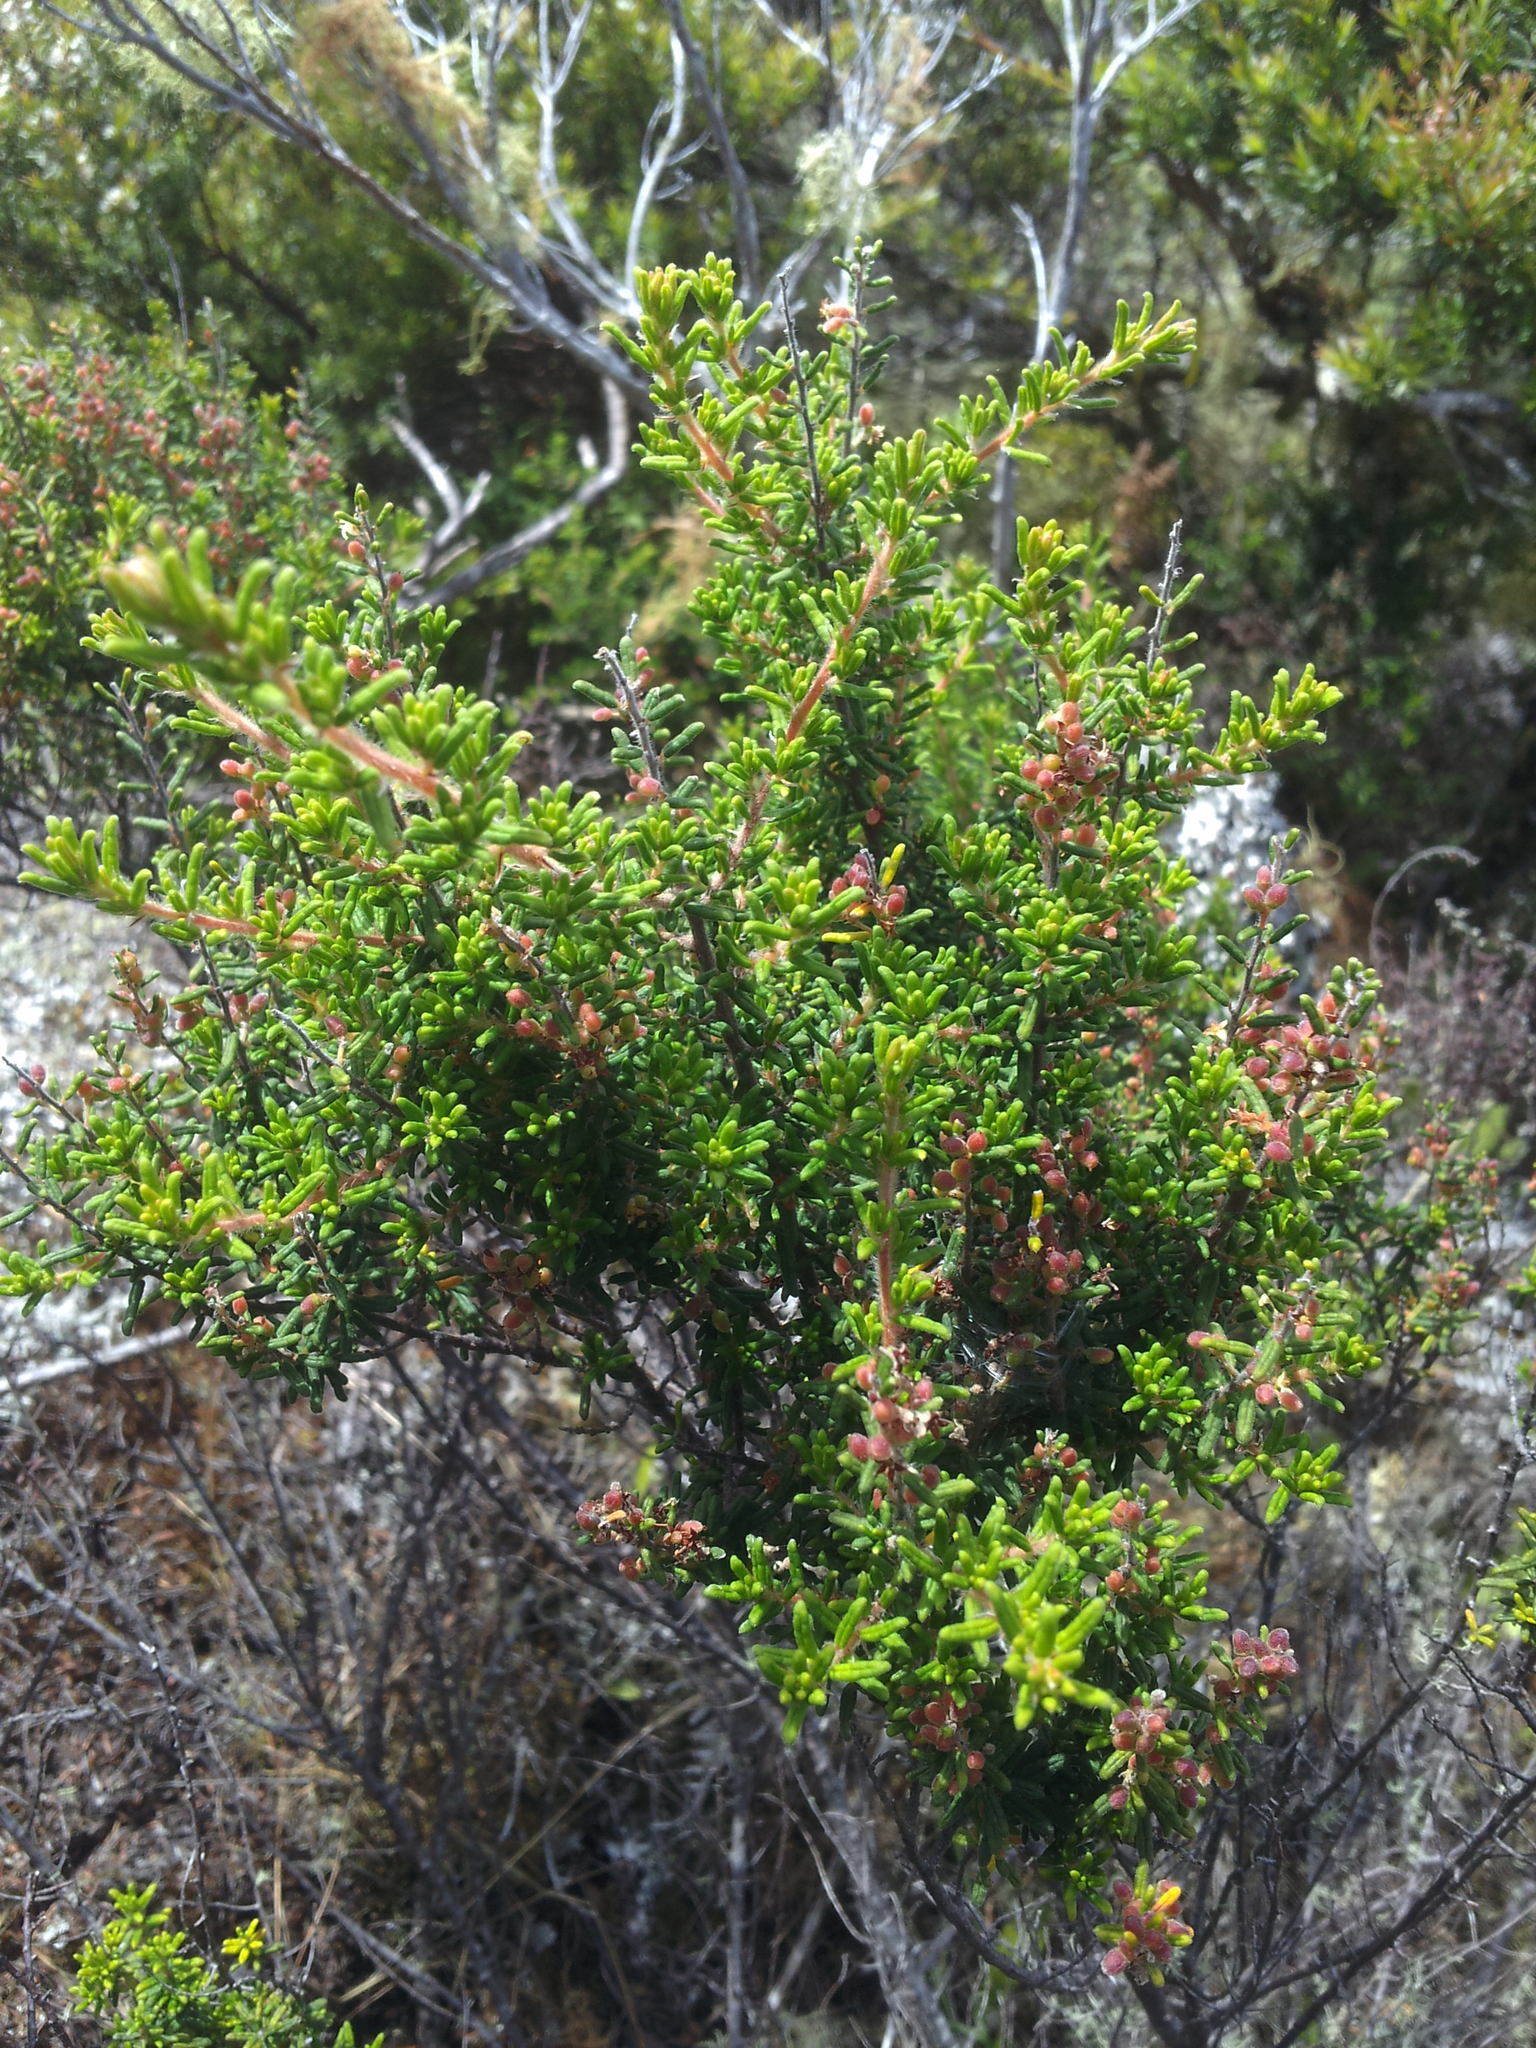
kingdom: Plantae
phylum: Tracheophyta
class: Magnoliopsida
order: Rosales
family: Rhamnaceae
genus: Pomaderris
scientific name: Pomaderris amoena
